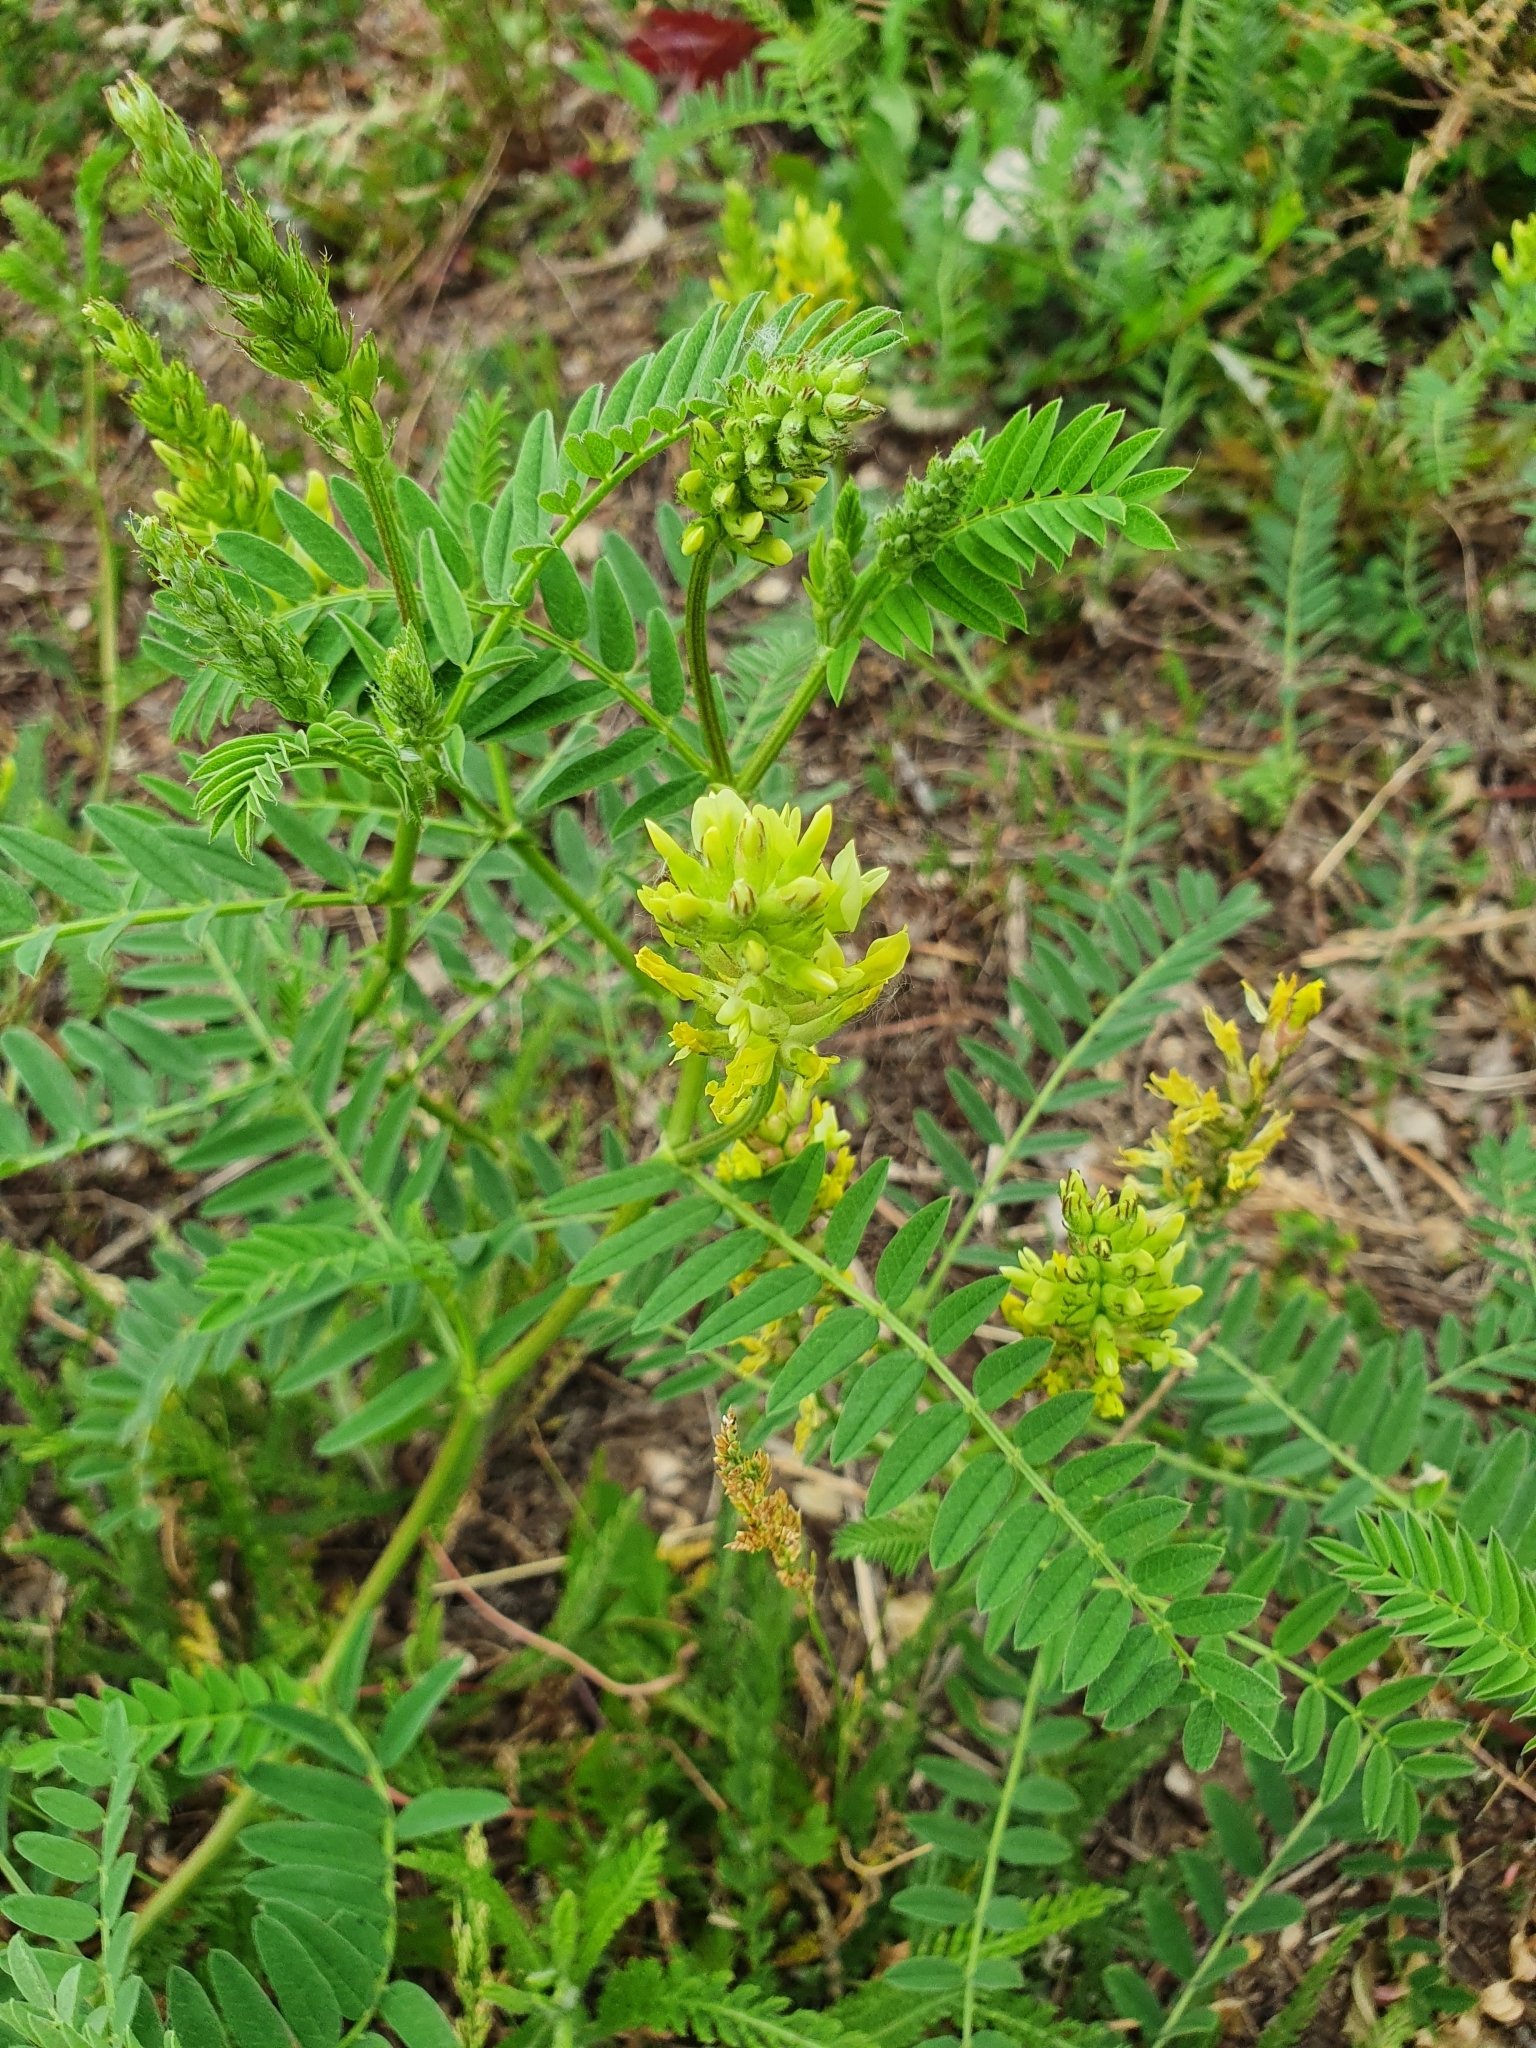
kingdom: Plantae
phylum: Tracheophyta
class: Magnoliopsida
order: Fabales
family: Fabaceae
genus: Astragalus
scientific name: Astragalus cicer
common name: Chick-pea milk-vetch
